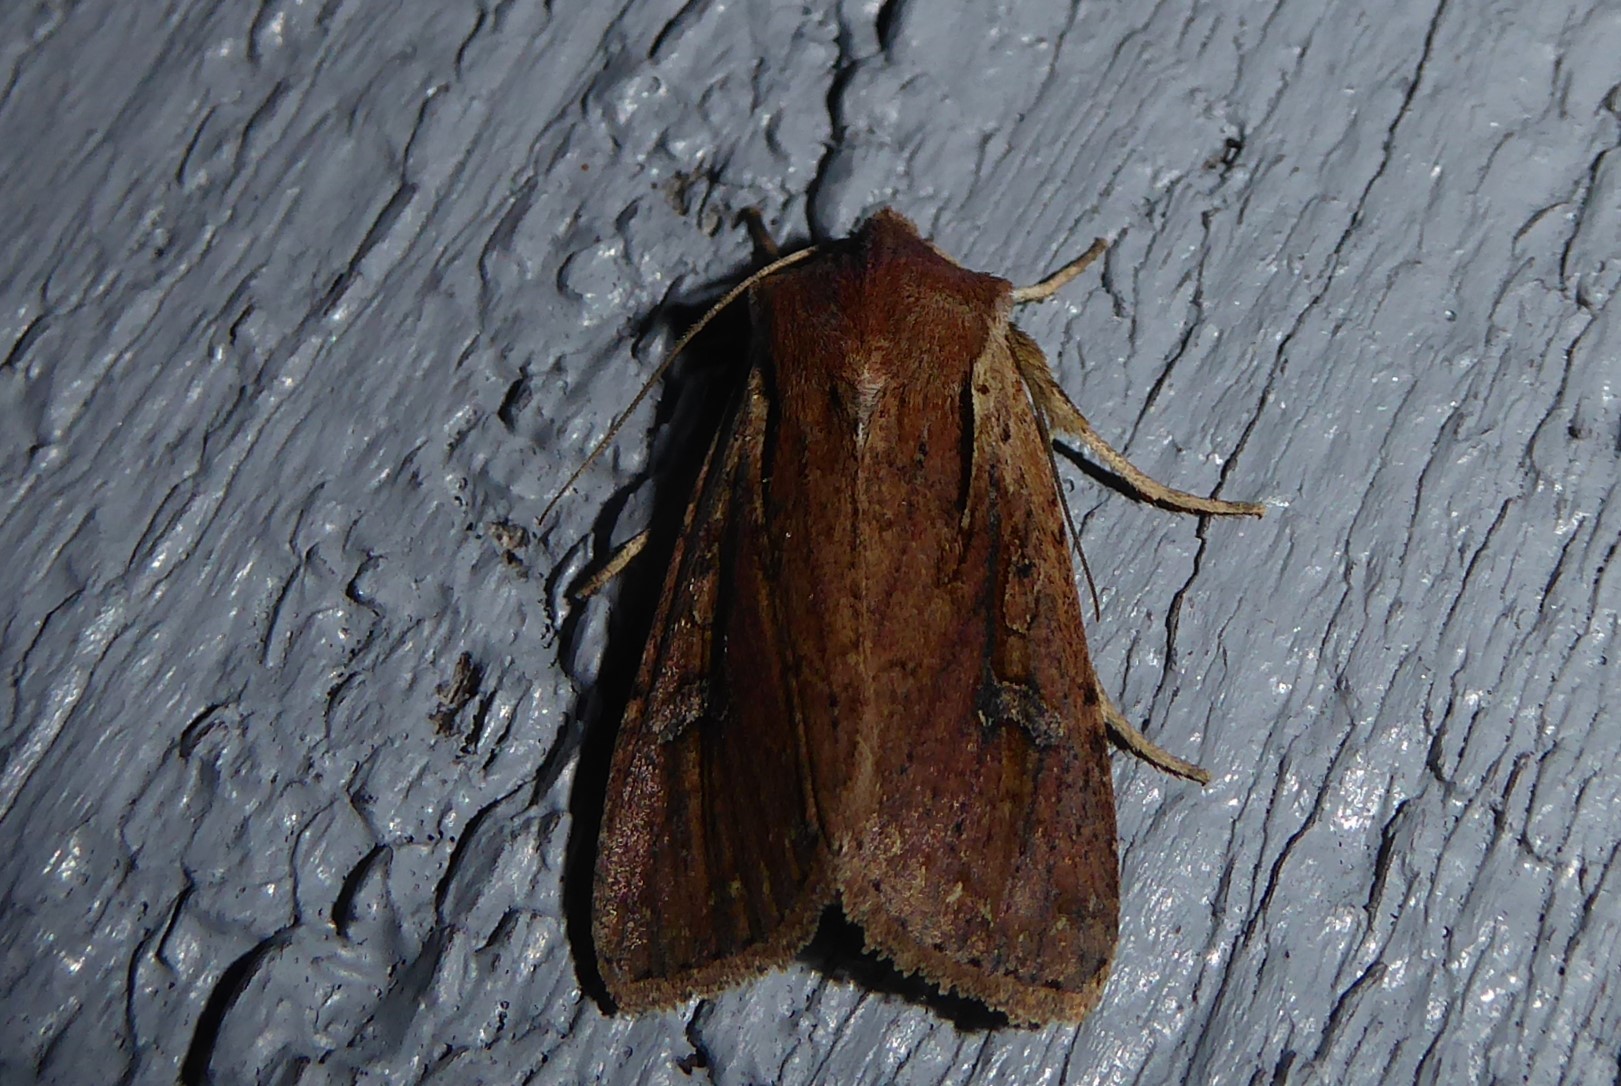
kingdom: Animalia
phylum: Arthropoda
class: Insecta
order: Lepidoptera
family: Noctuidae
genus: Ichneutica
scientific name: Ichneutica atristriga
